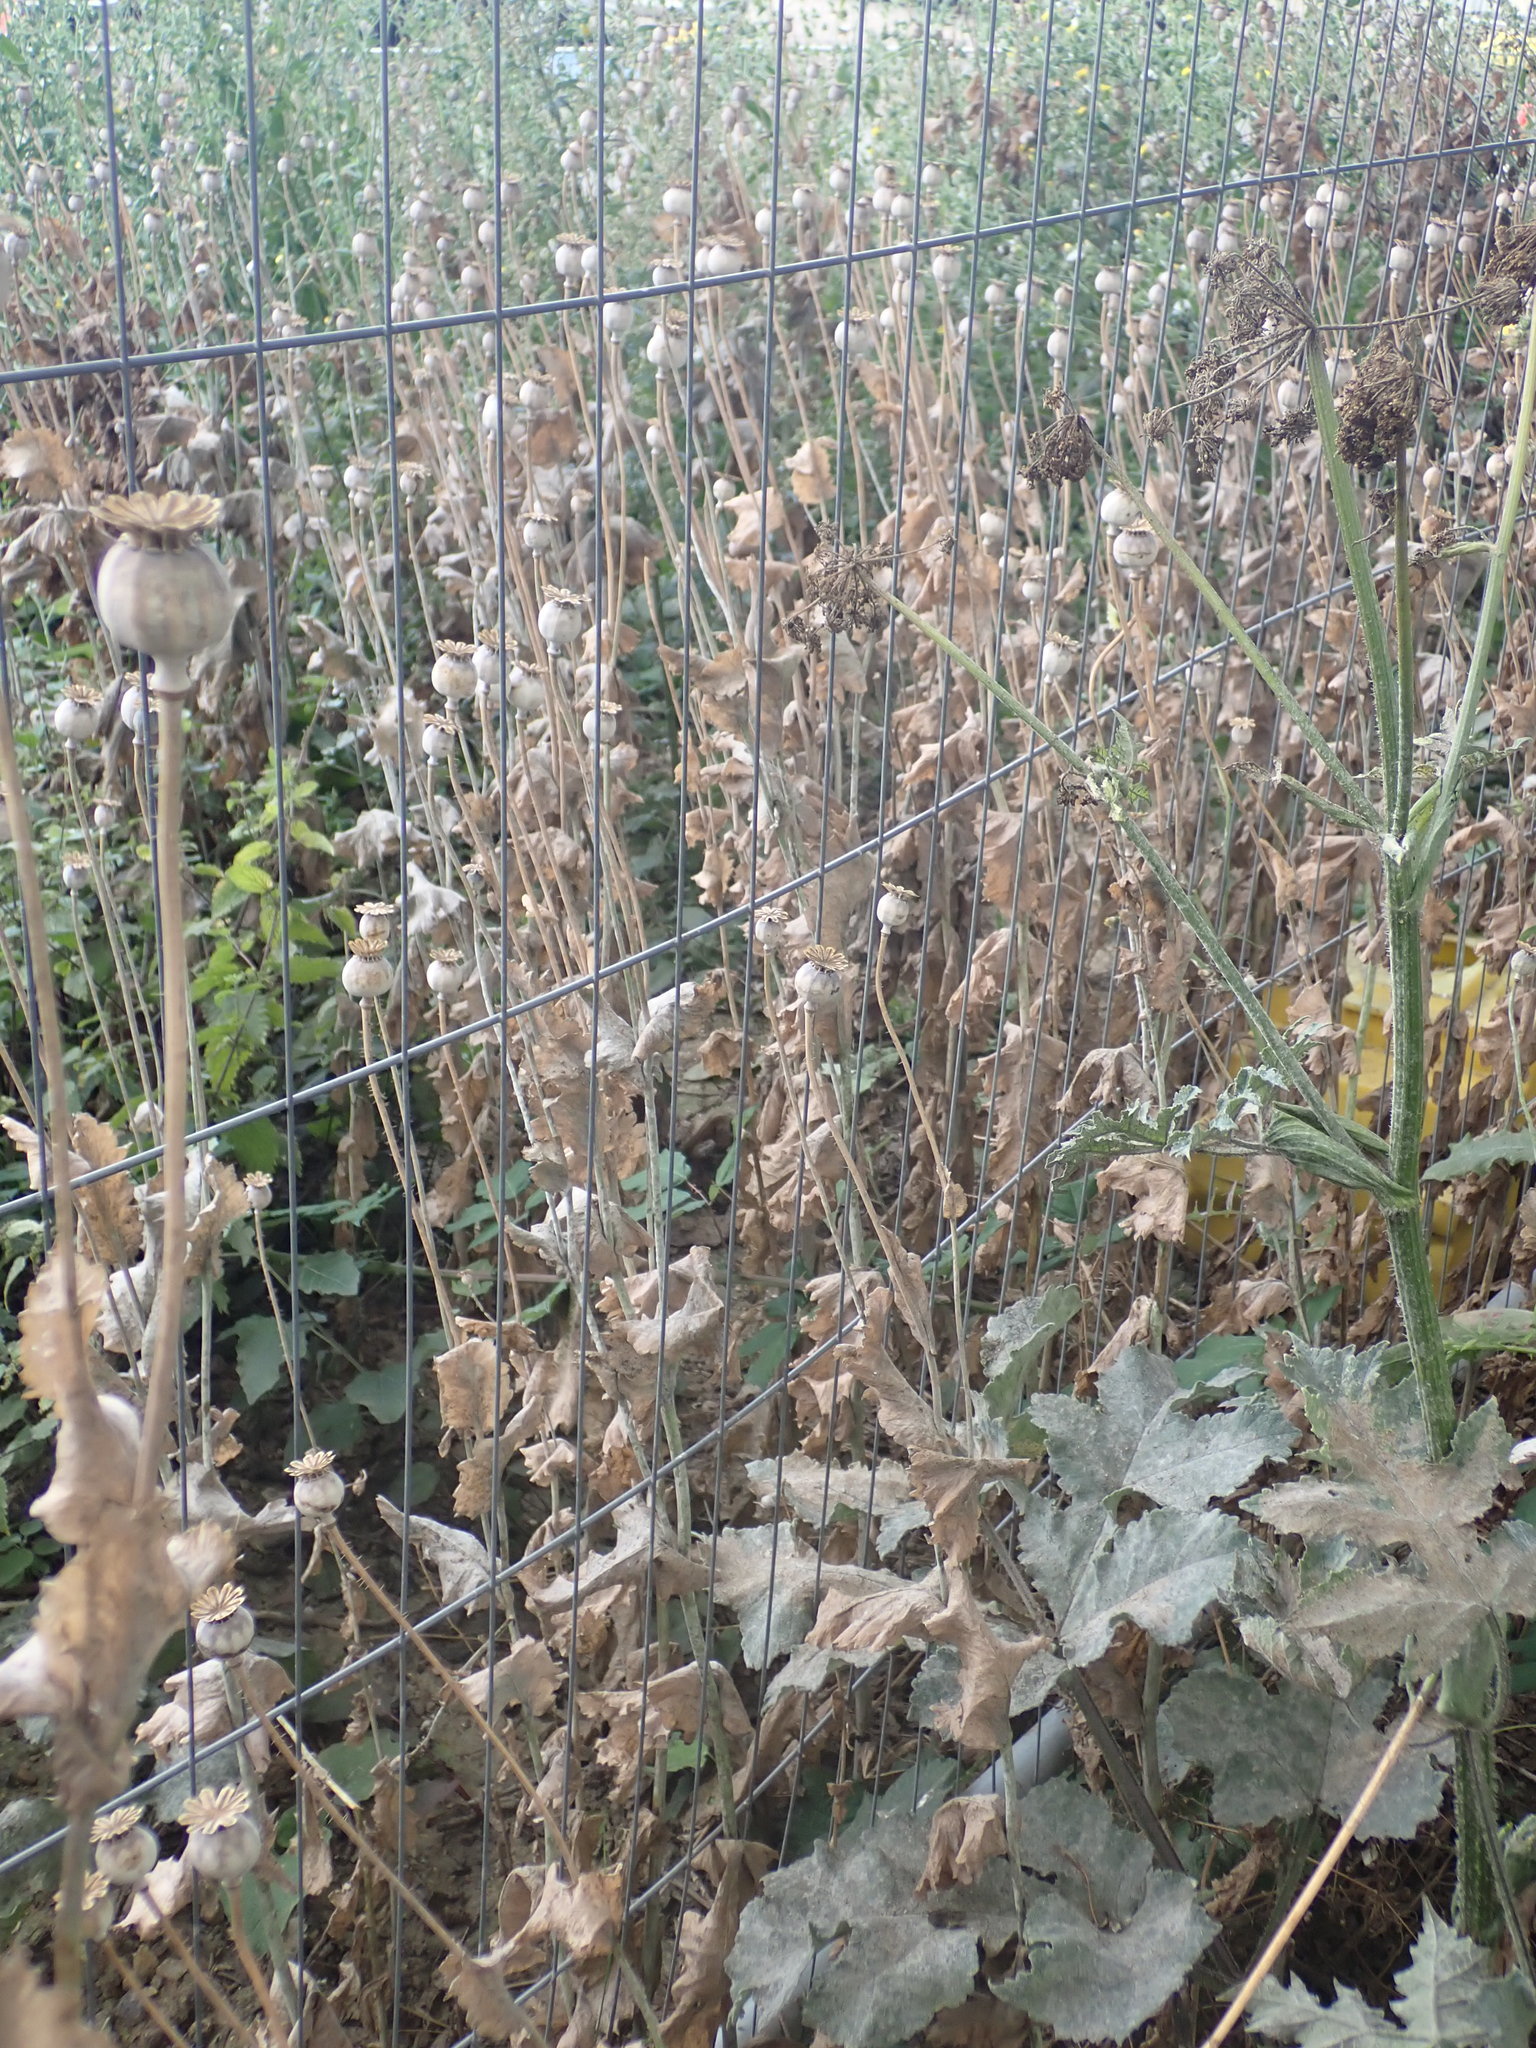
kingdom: Plantae
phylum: Tracheophyta
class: Magnoliopsida
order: Ranunculales
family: Papaveraceae
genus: Papaver
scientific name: Papaver somniferum
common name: Opium poppy
